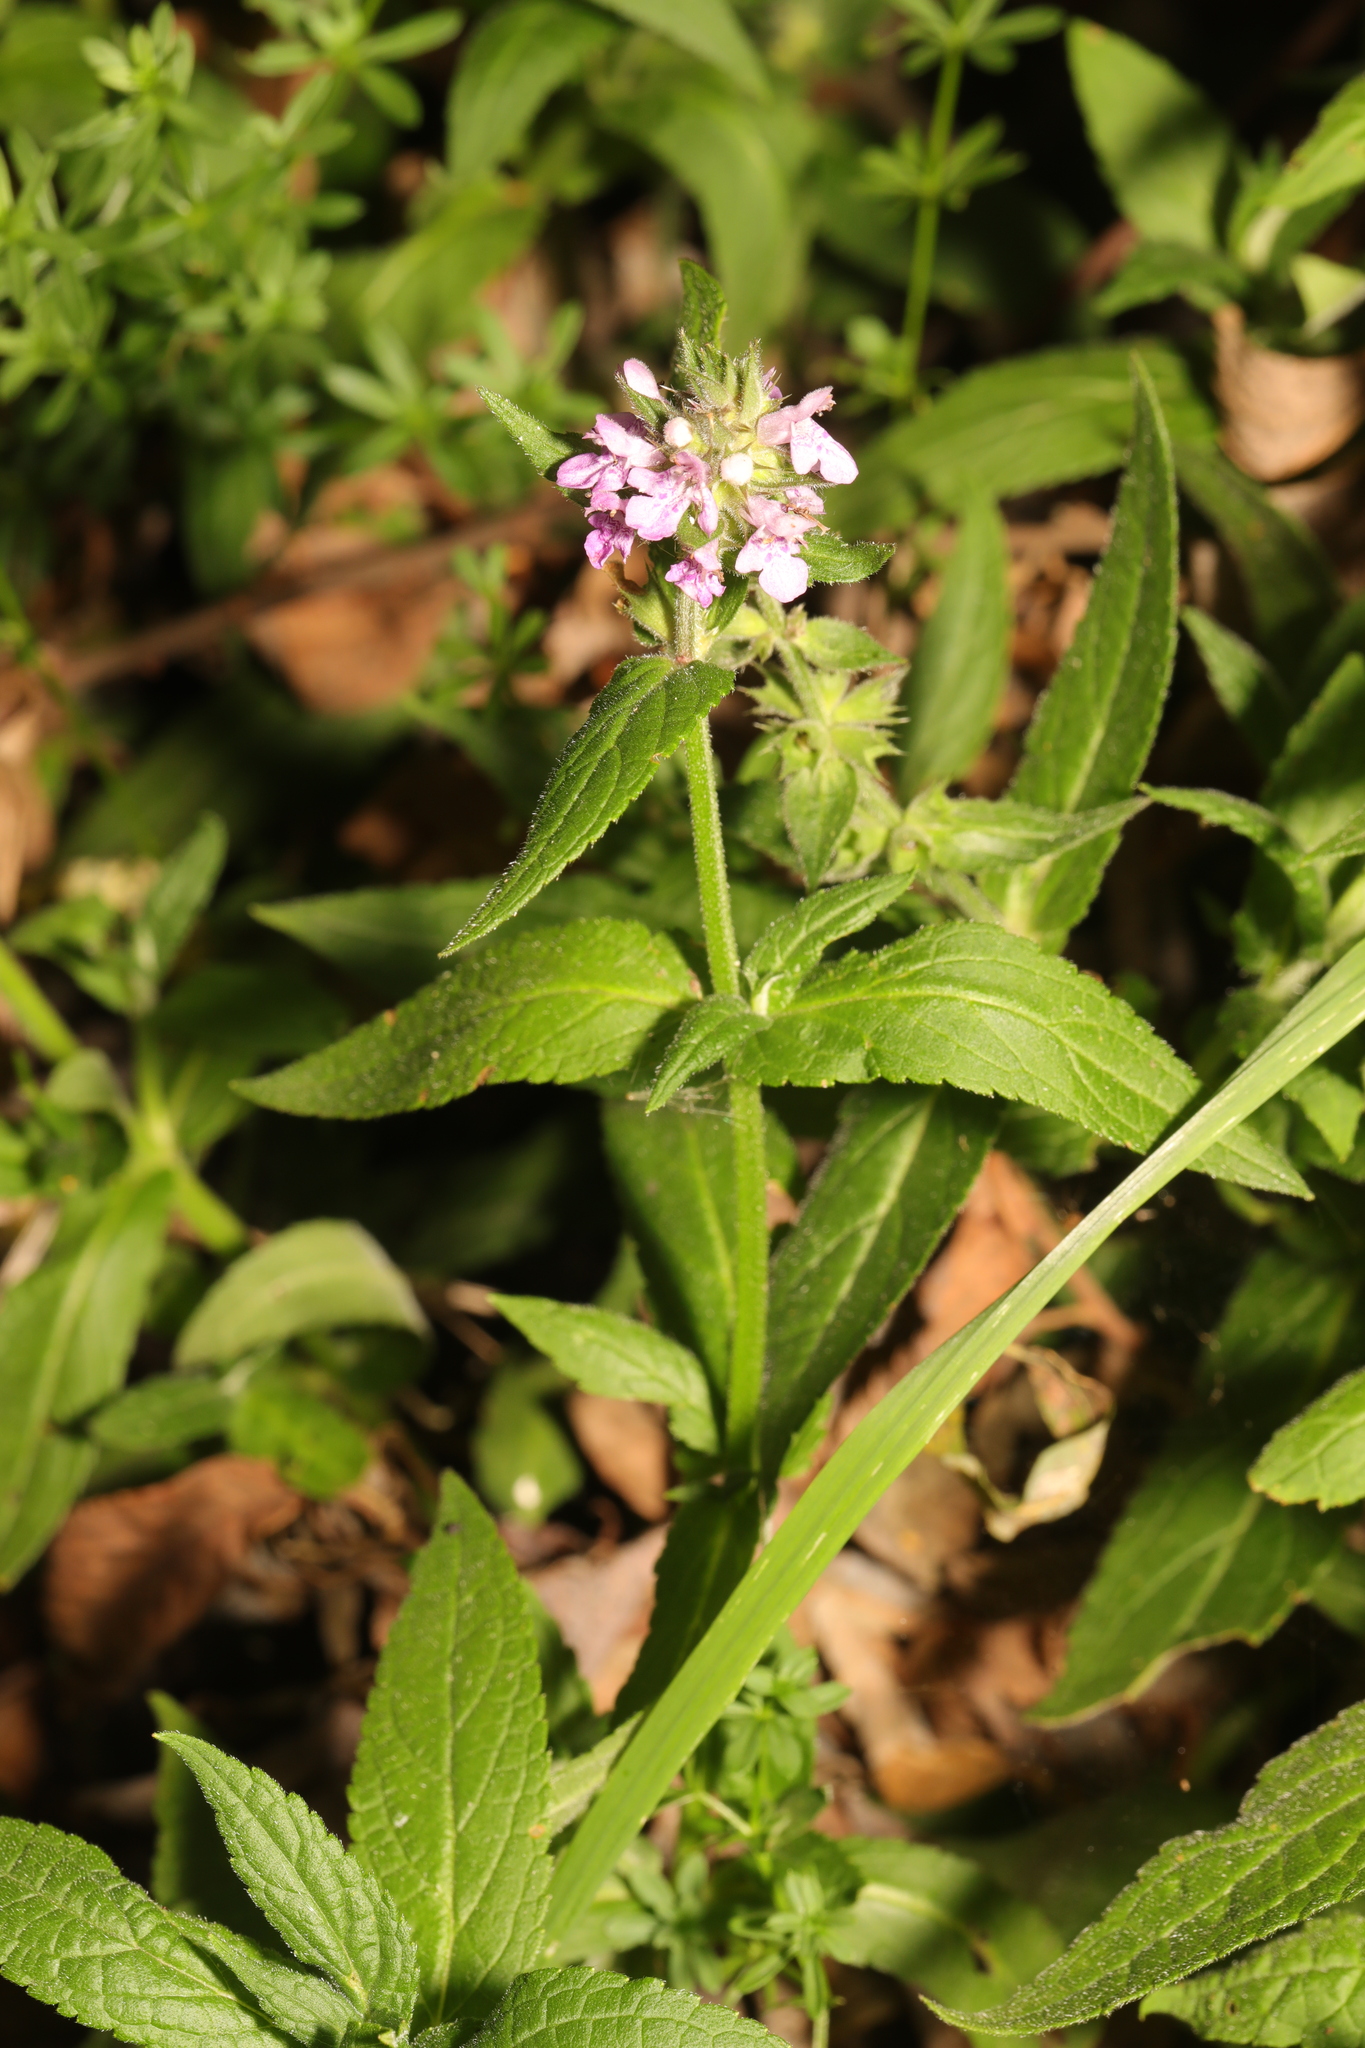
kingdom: Plantae
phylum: Tracheophyta
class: Magnoliopsida
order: Lamiales
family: Lamiaceae
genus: Stachys
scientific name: Stachys palustris
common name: Marsh woundwort
